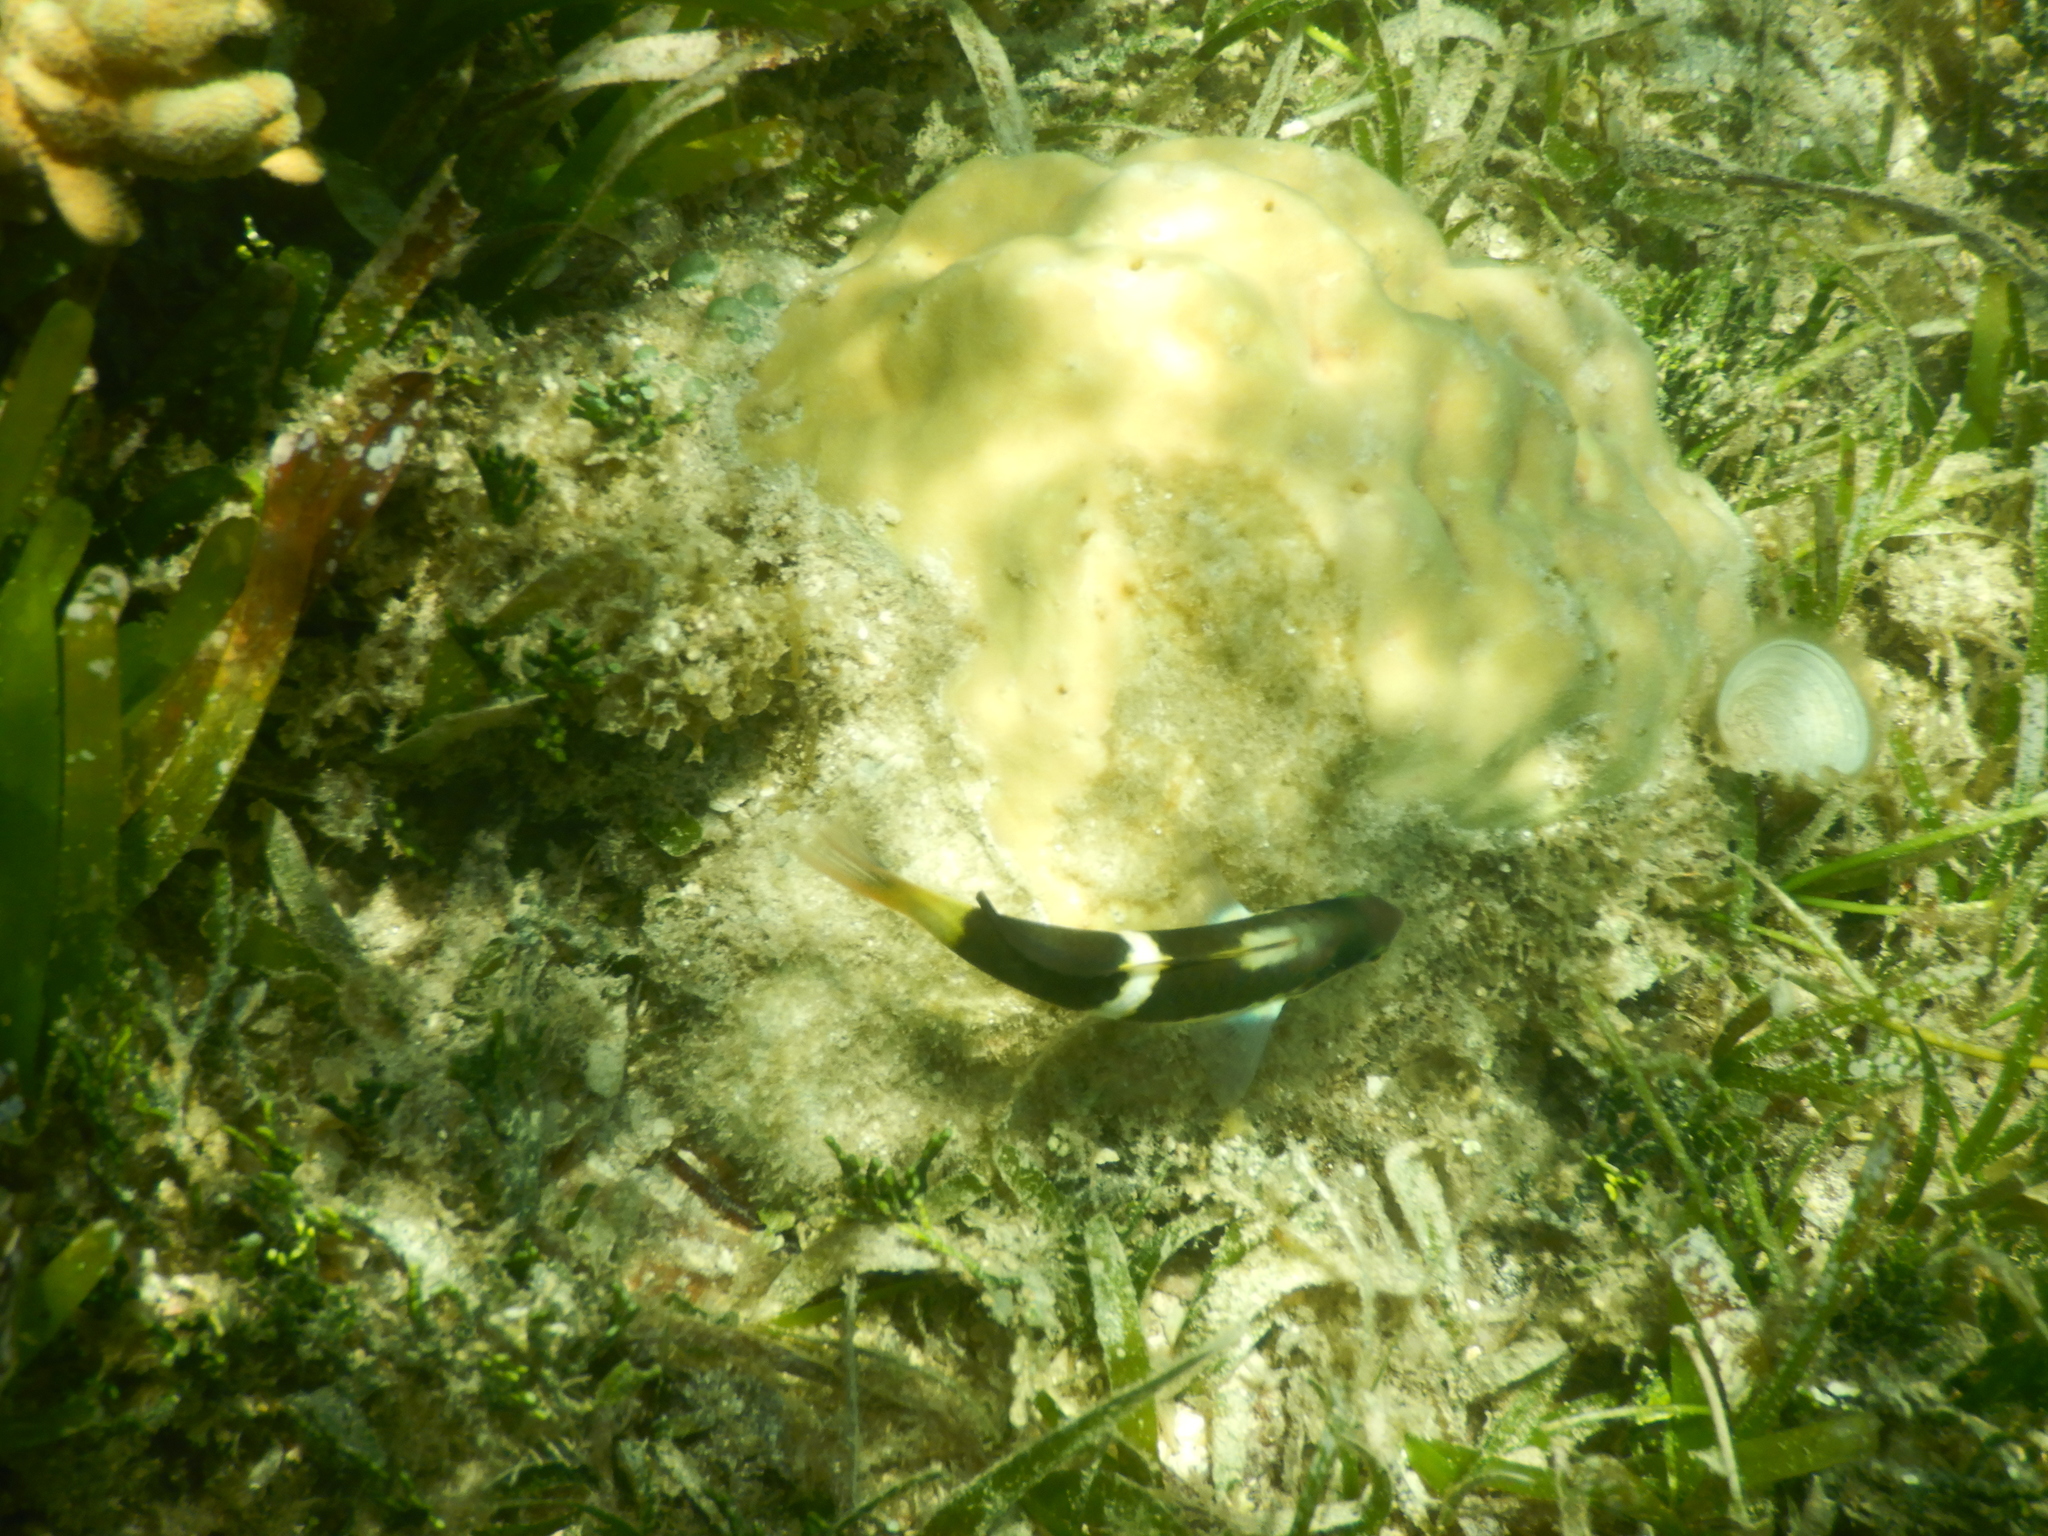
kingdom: Animalia
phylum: Chordata
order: Perciformes
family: Labridae
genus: Thalassoma
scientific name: Thalassoma nigrofasciatum
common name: Black-barred wrasse
